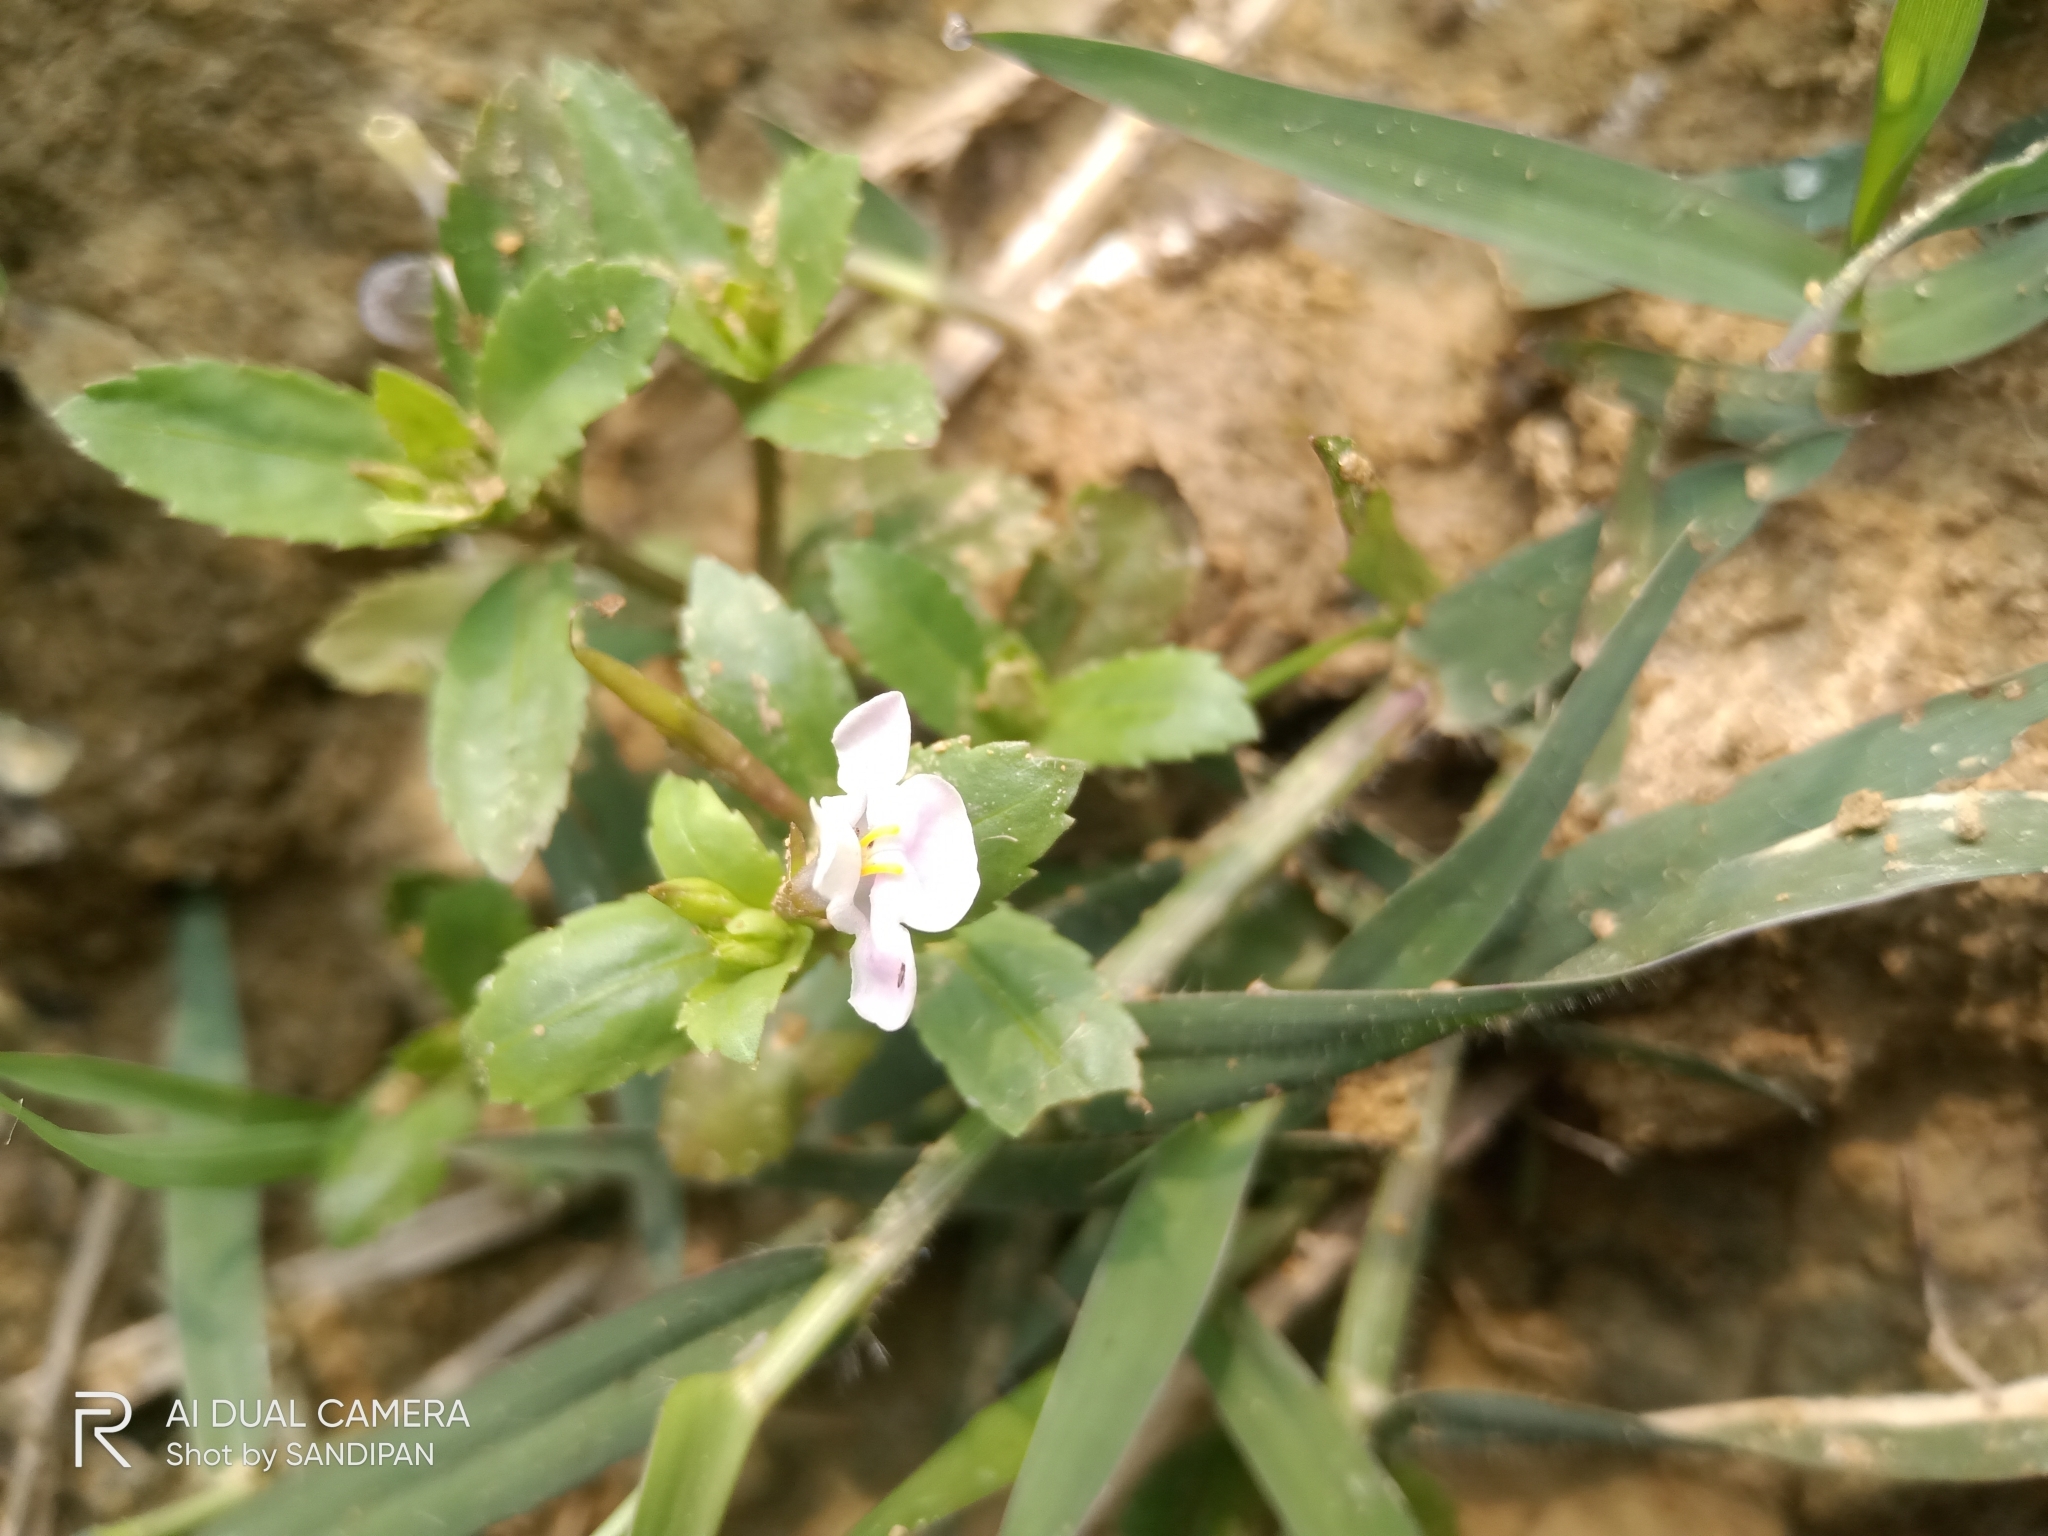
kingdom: Plantae
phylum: Tracheophyta
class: Magnoliopsida
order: Lamiales
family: Linderniaceae
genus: Bonnaya
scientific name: Bonnaya antipoda
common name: Sparrow false pimpernel
